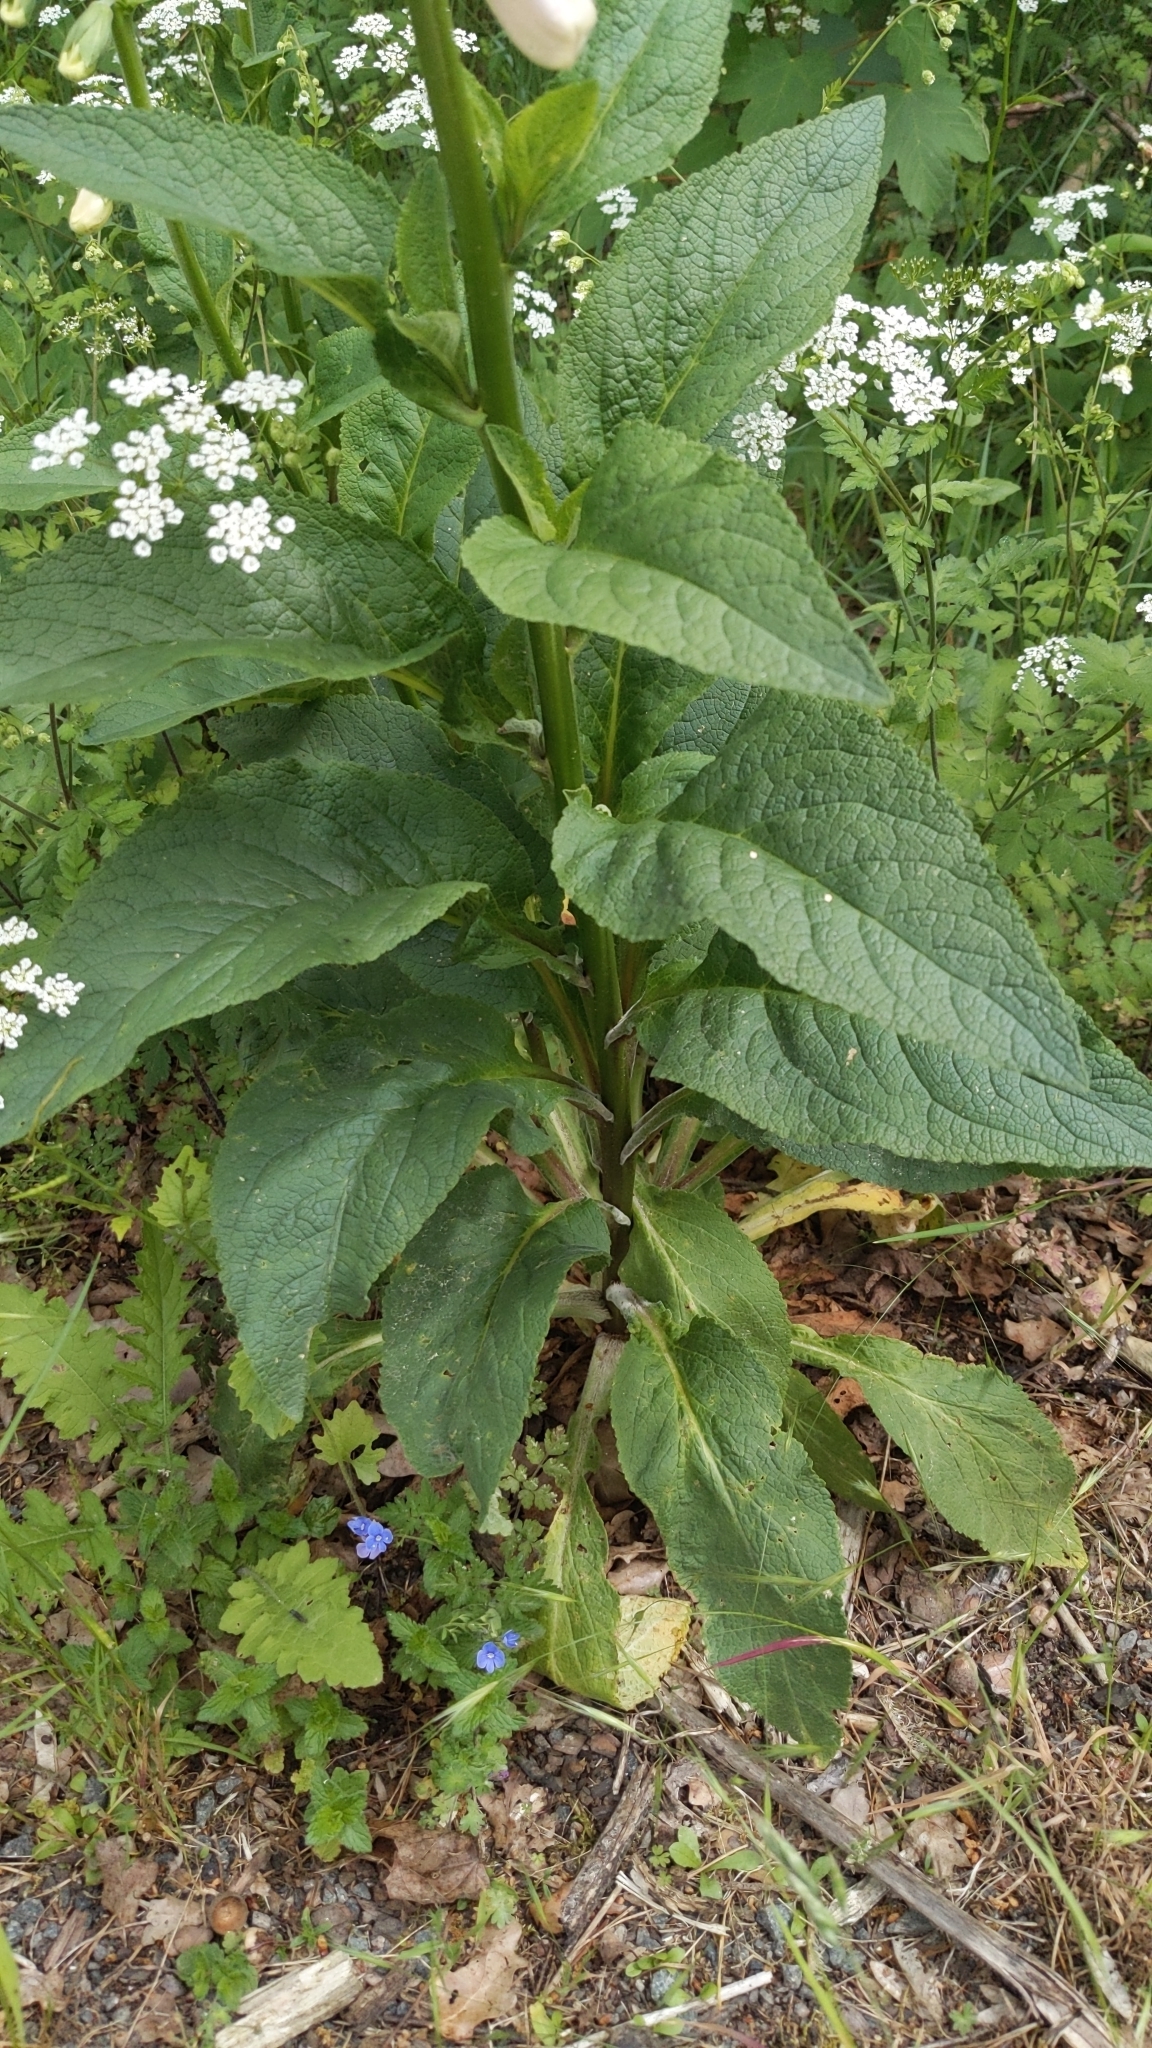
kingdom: Plantae
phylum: Tracheophyta
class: Magnoliopsida
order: Lamiales
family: Plantaginaceae
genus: Digitalis
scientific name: Digitalis purpurea
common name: Foxglove
